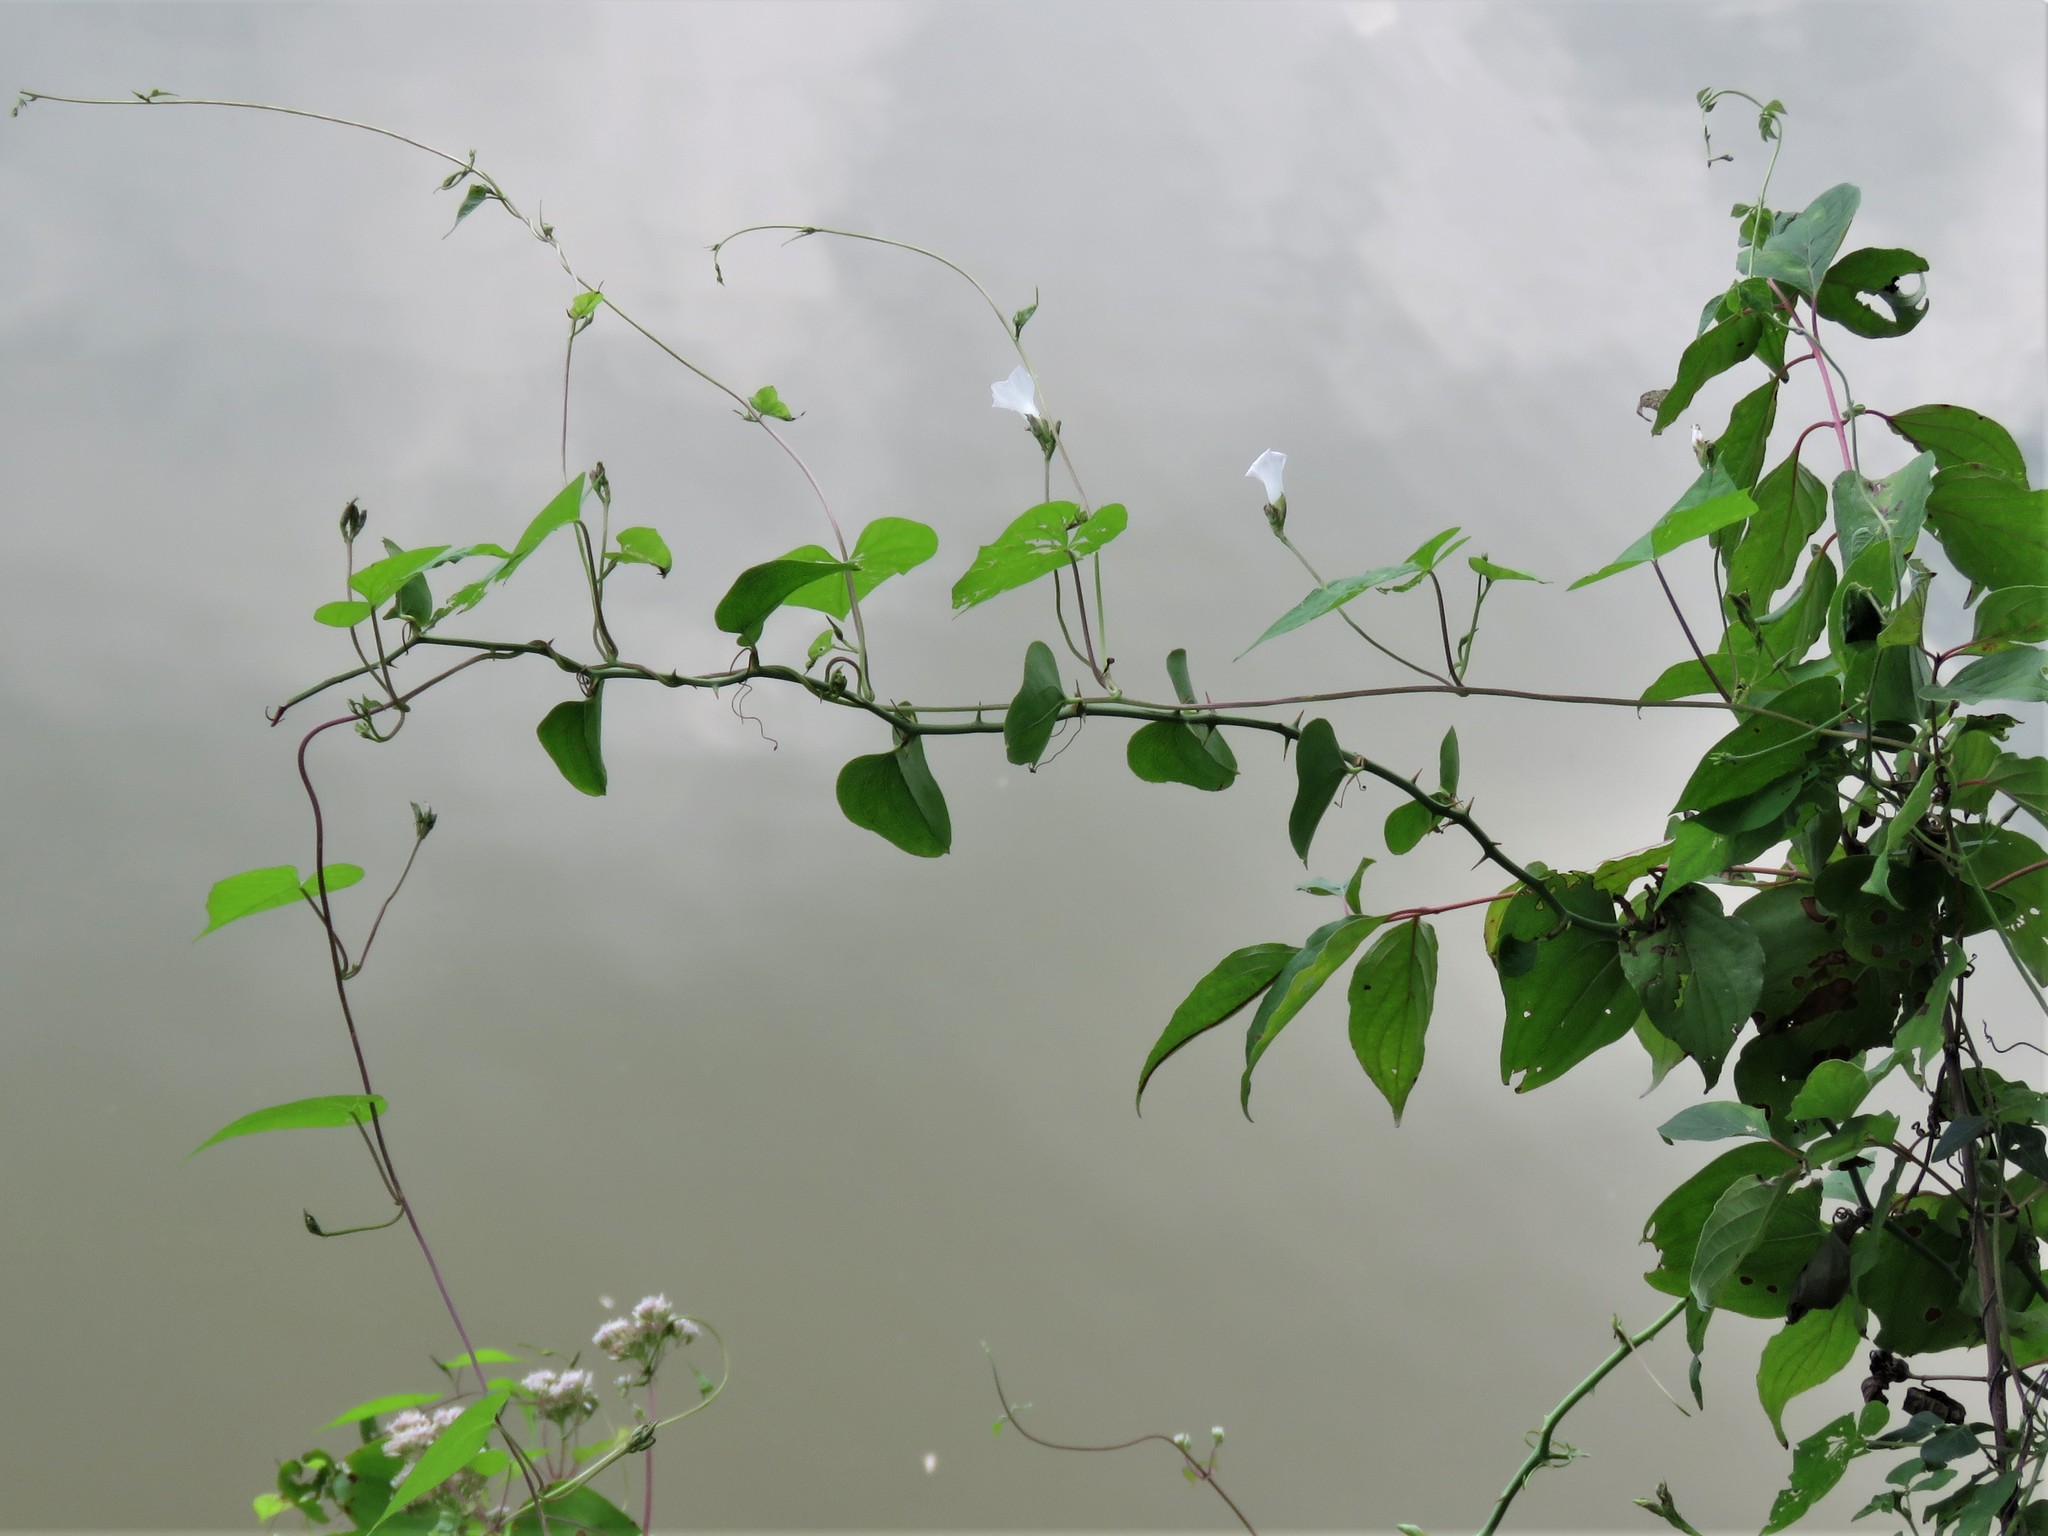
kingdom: Plantae
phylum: Tracheophyta
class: Magnoliopsida
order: Solanales
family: Convolvulaceae
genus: Ipomoea
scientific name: Ipomoea lacunosa
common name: White morning-glory
